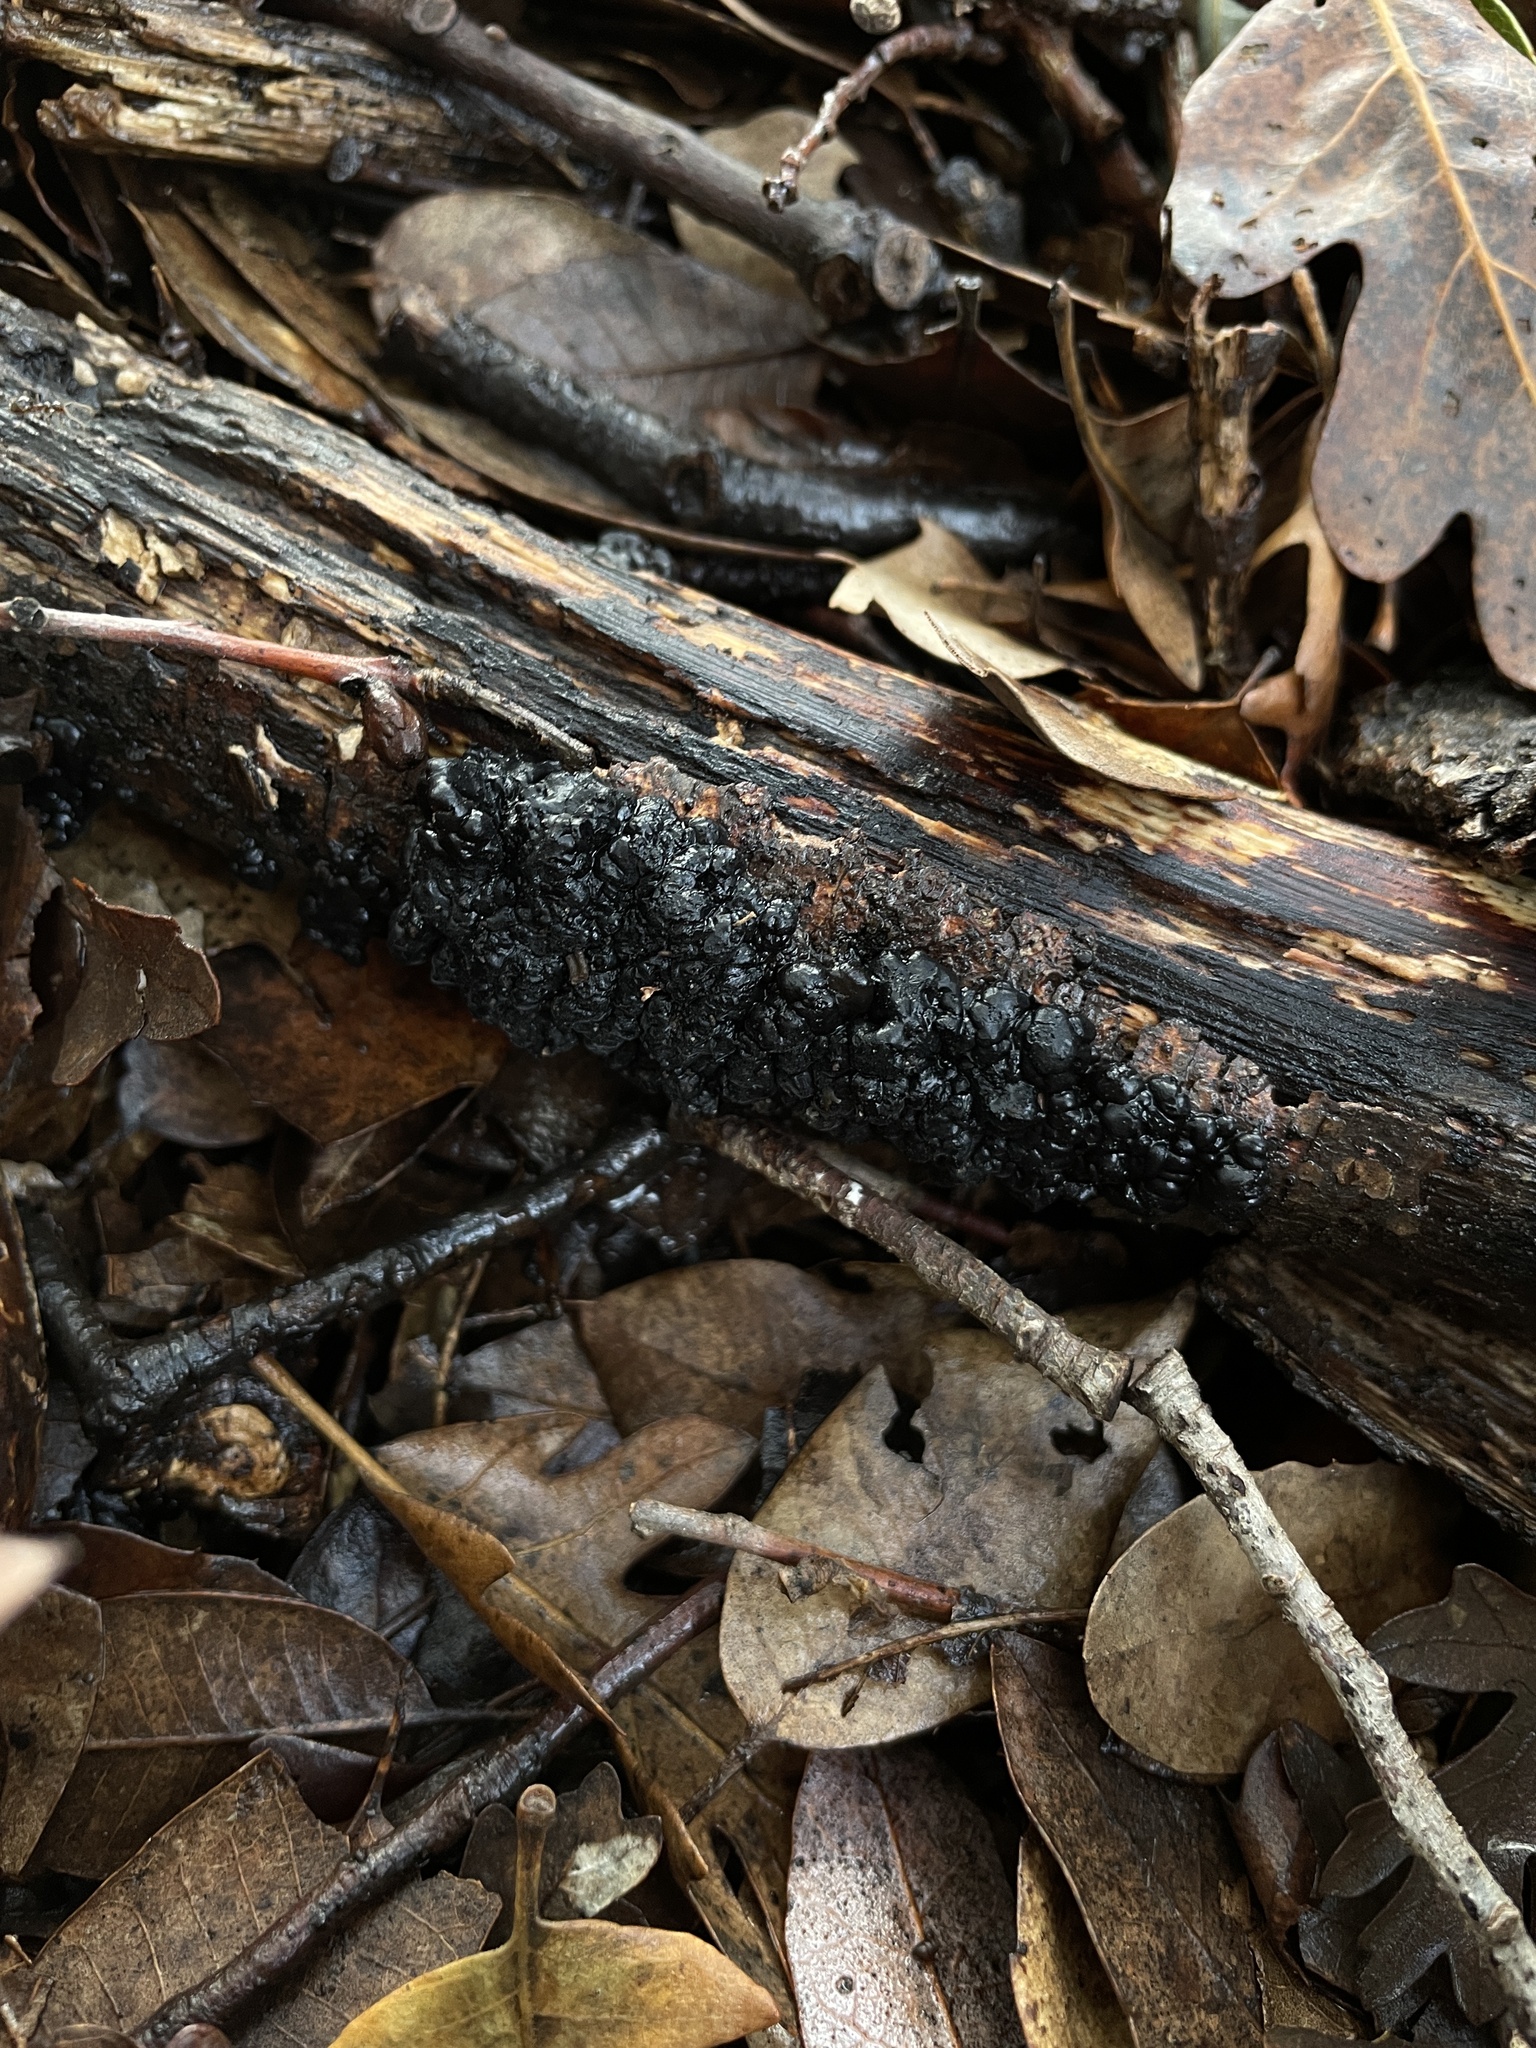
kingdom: Fungi
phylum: Basidiomycota
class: Agaricomycetes
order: Auriculariales
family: Auriculariaceae
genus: Exidia
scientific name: Exidia glandulosa
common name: Witches' butter
